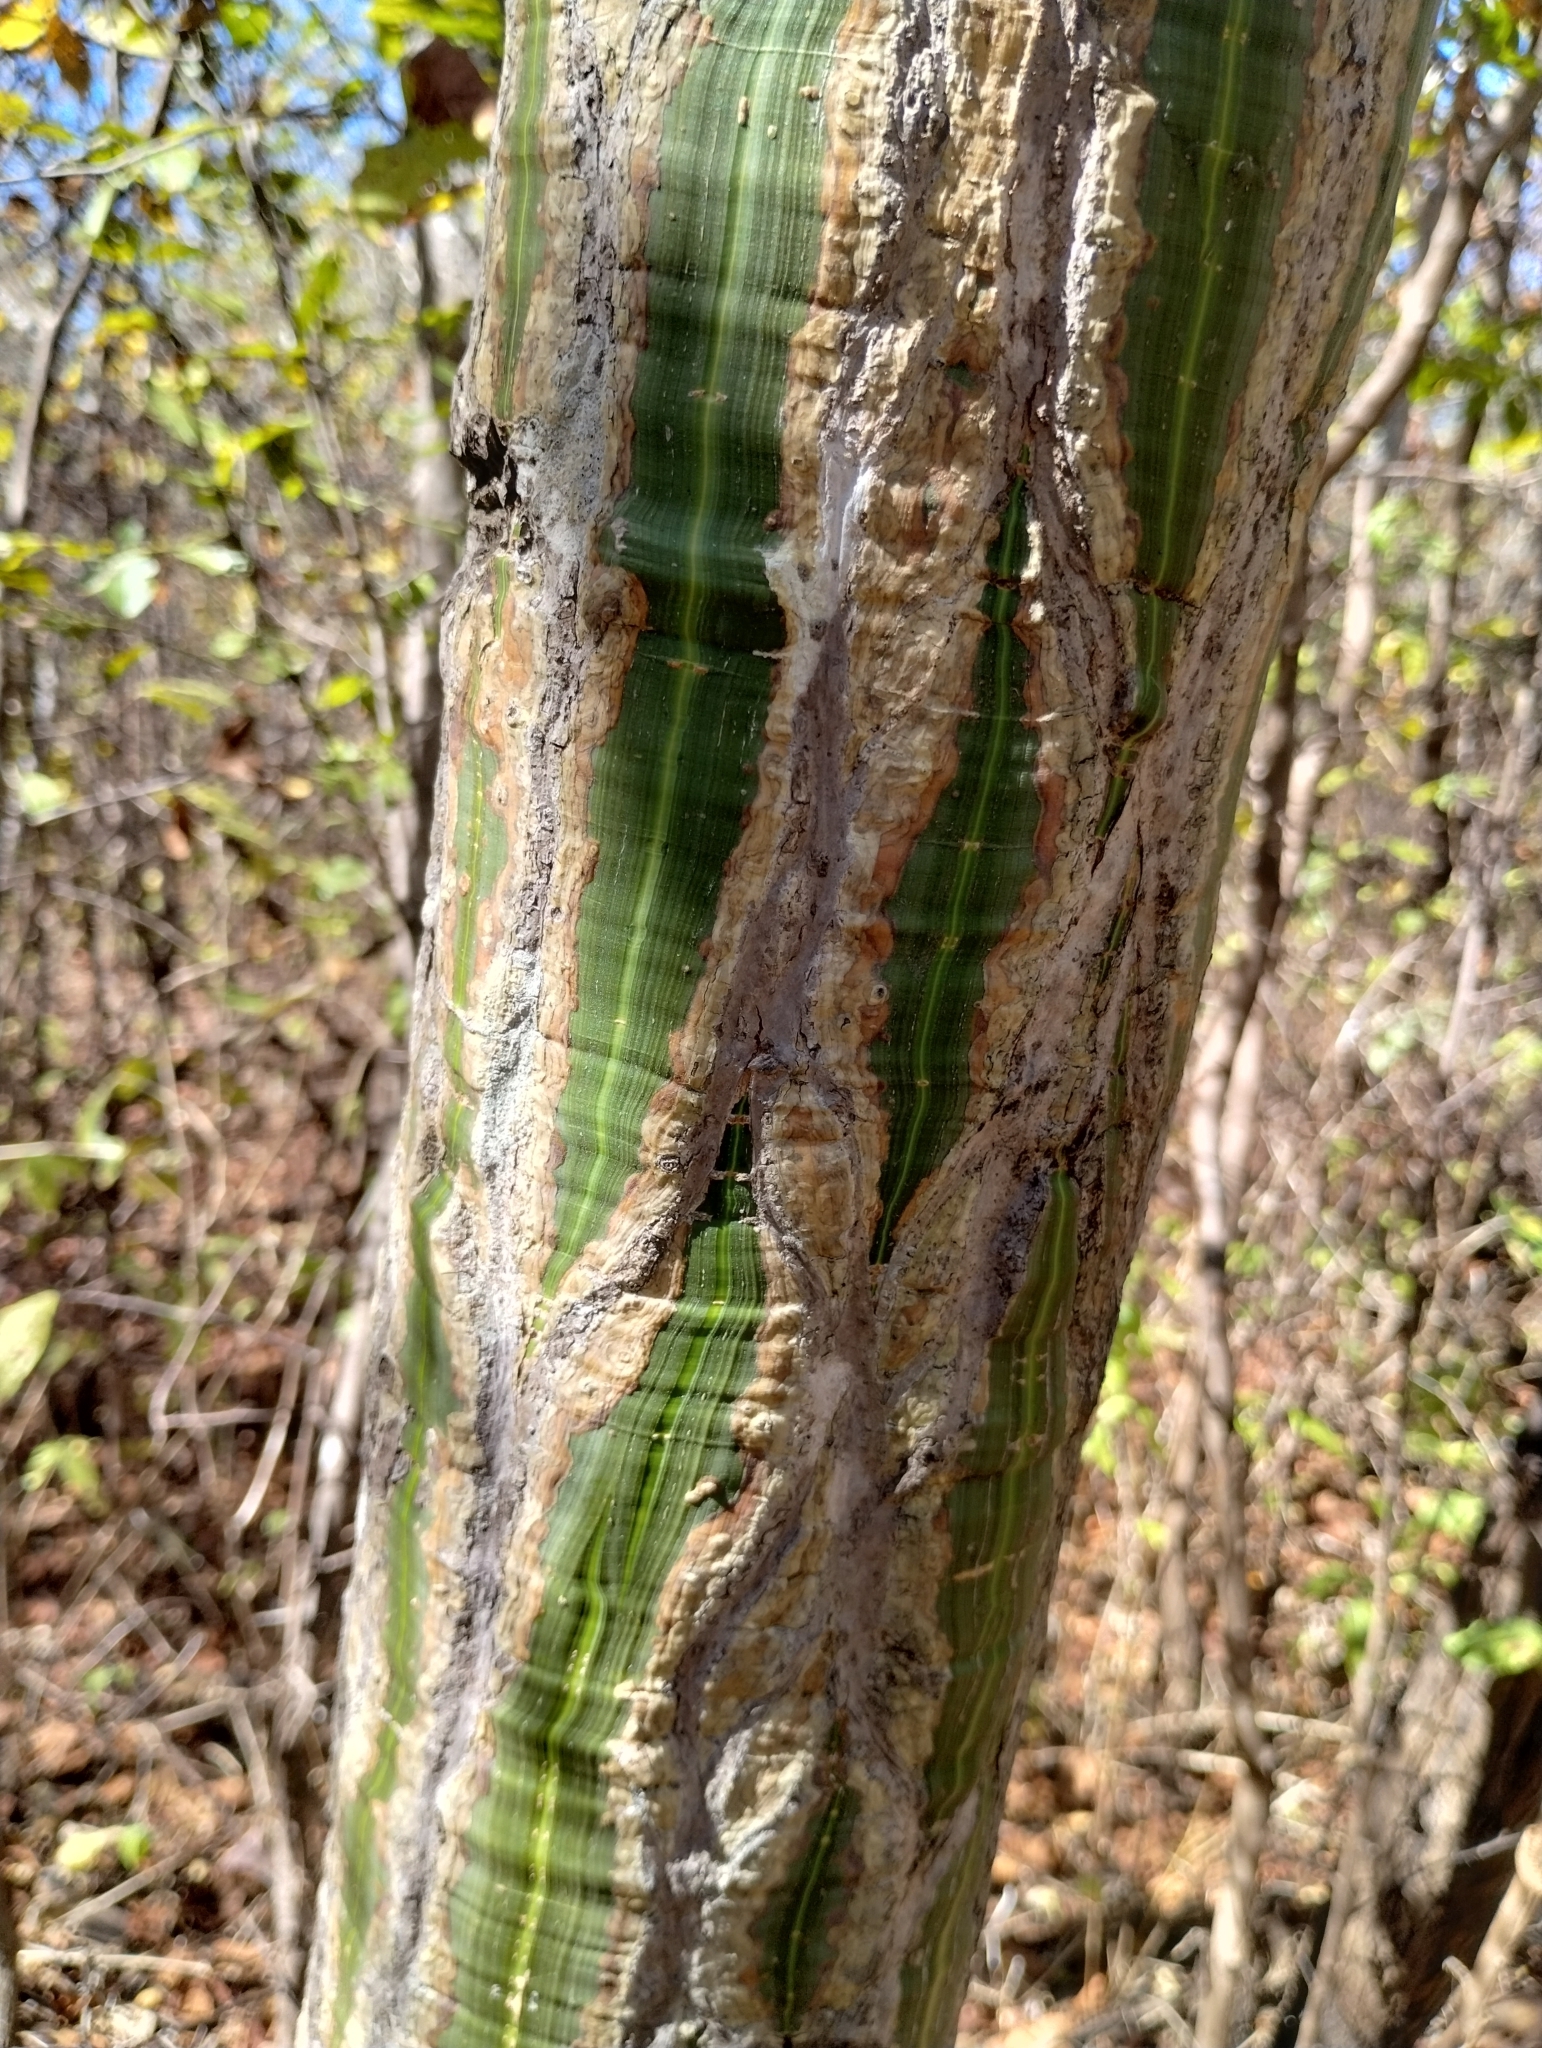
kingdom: Plantae
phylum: Tracheophyta
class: Magnoliopsida
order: Malvales
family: Malvaceae
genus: Pseudobombax
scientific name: Pseudobombax
